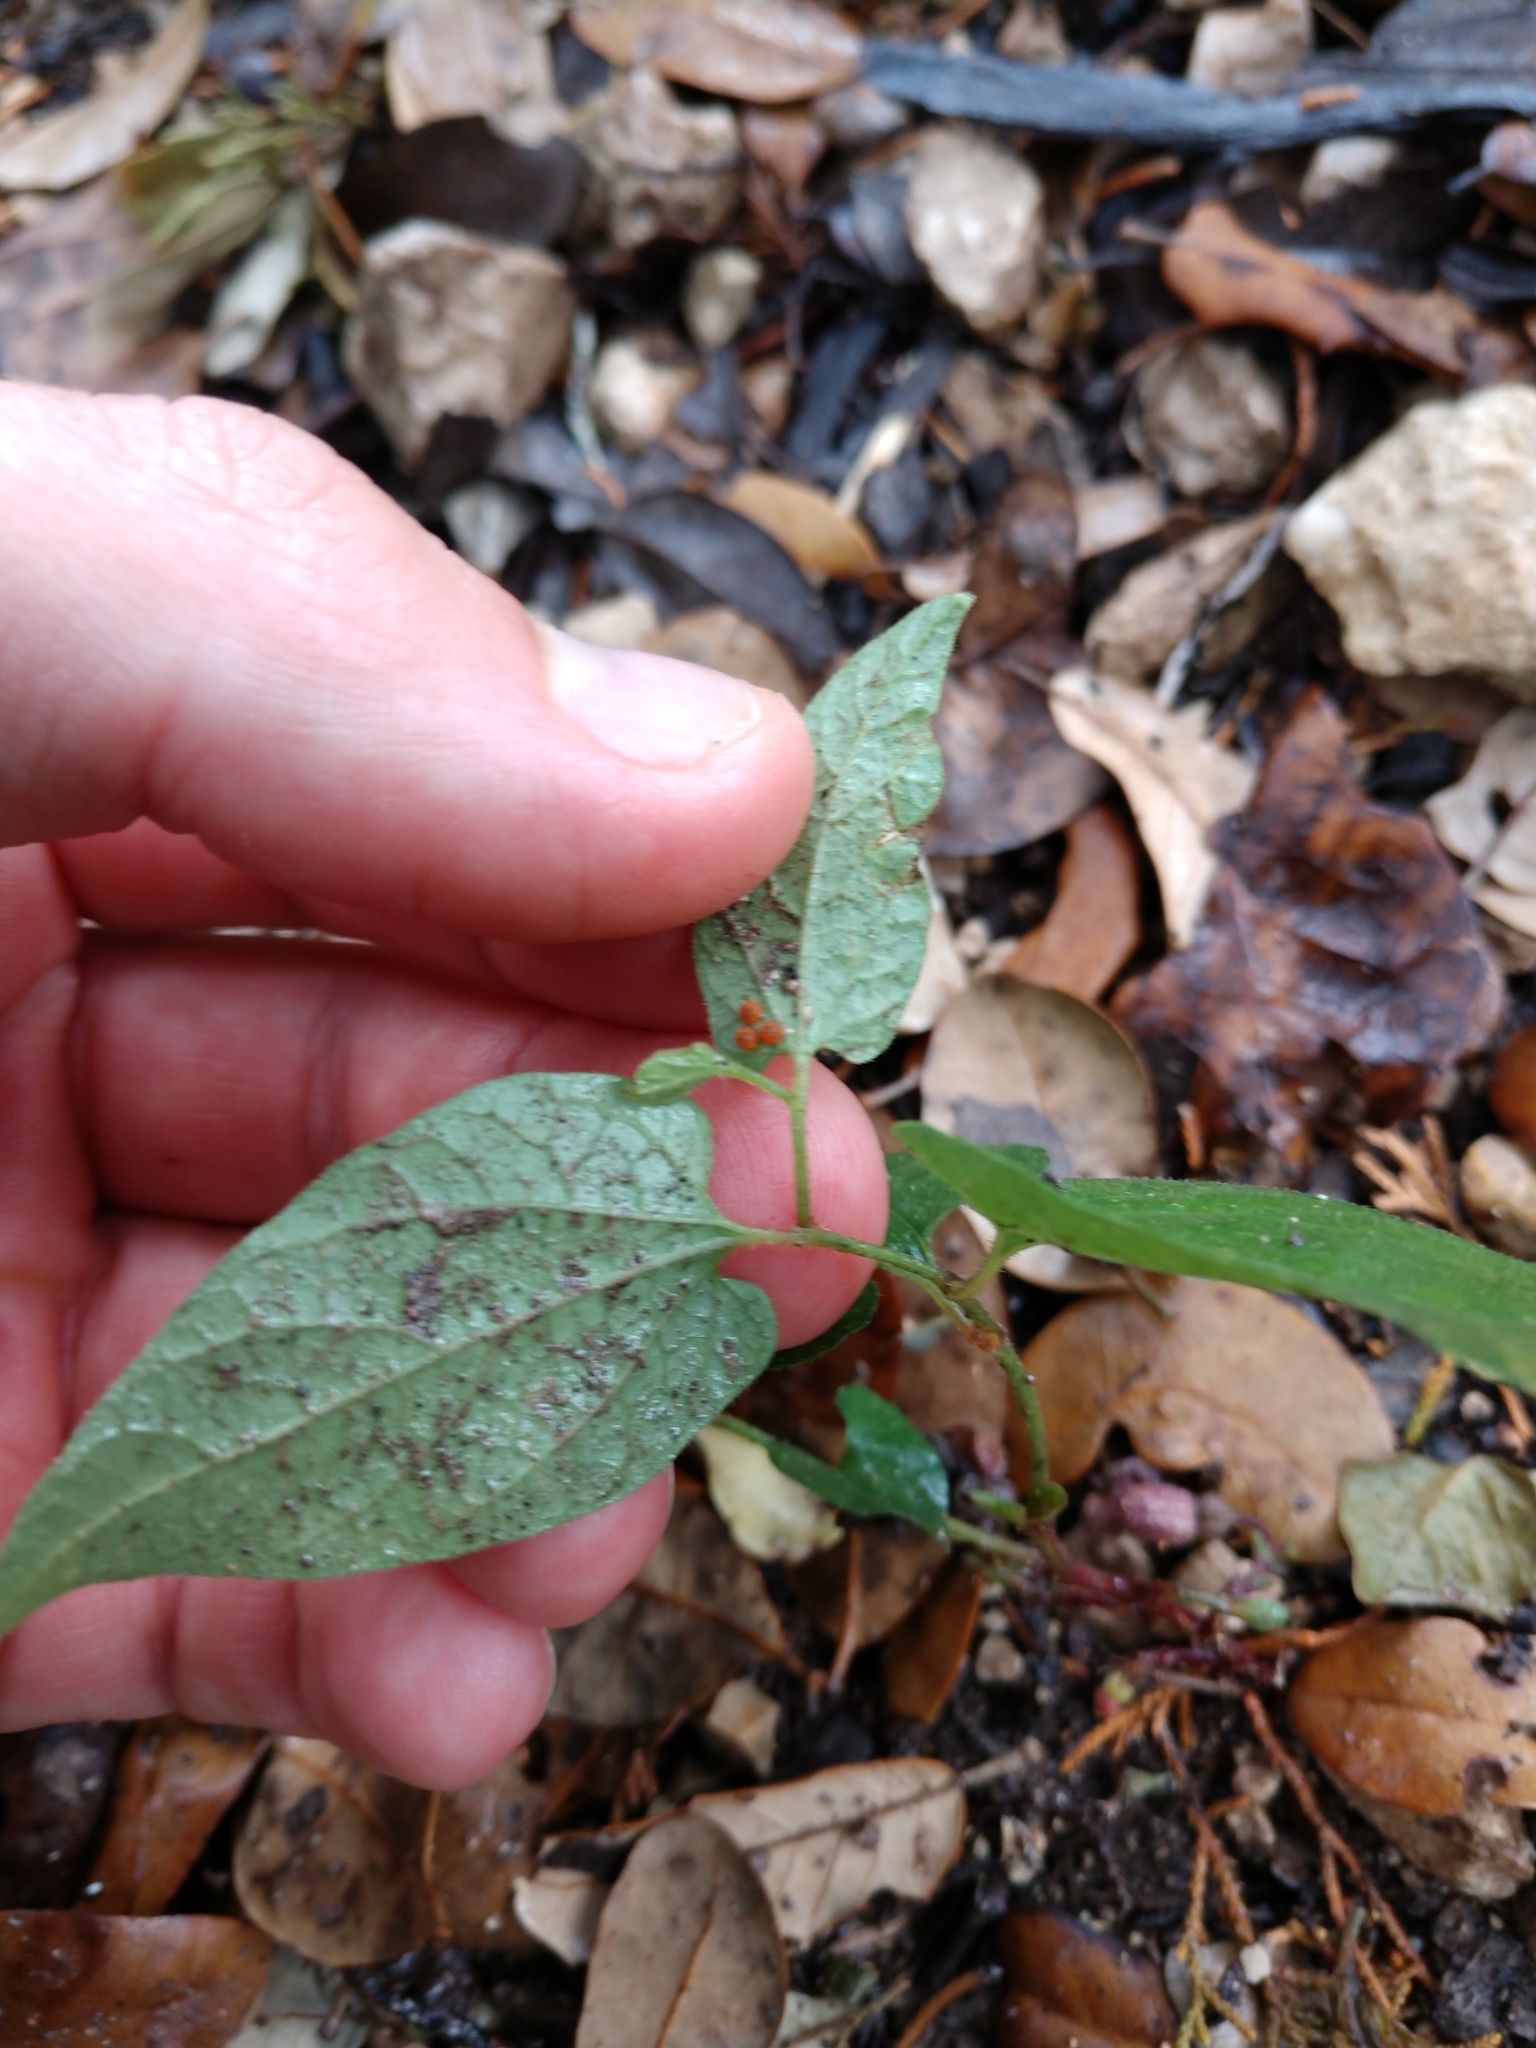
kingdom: Animalia
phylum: Arthropoda
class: Insecta
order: Lepidoptera
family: Papilionidae
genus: Battus
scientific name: Battus philenor
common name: Pipevine swallowtail
